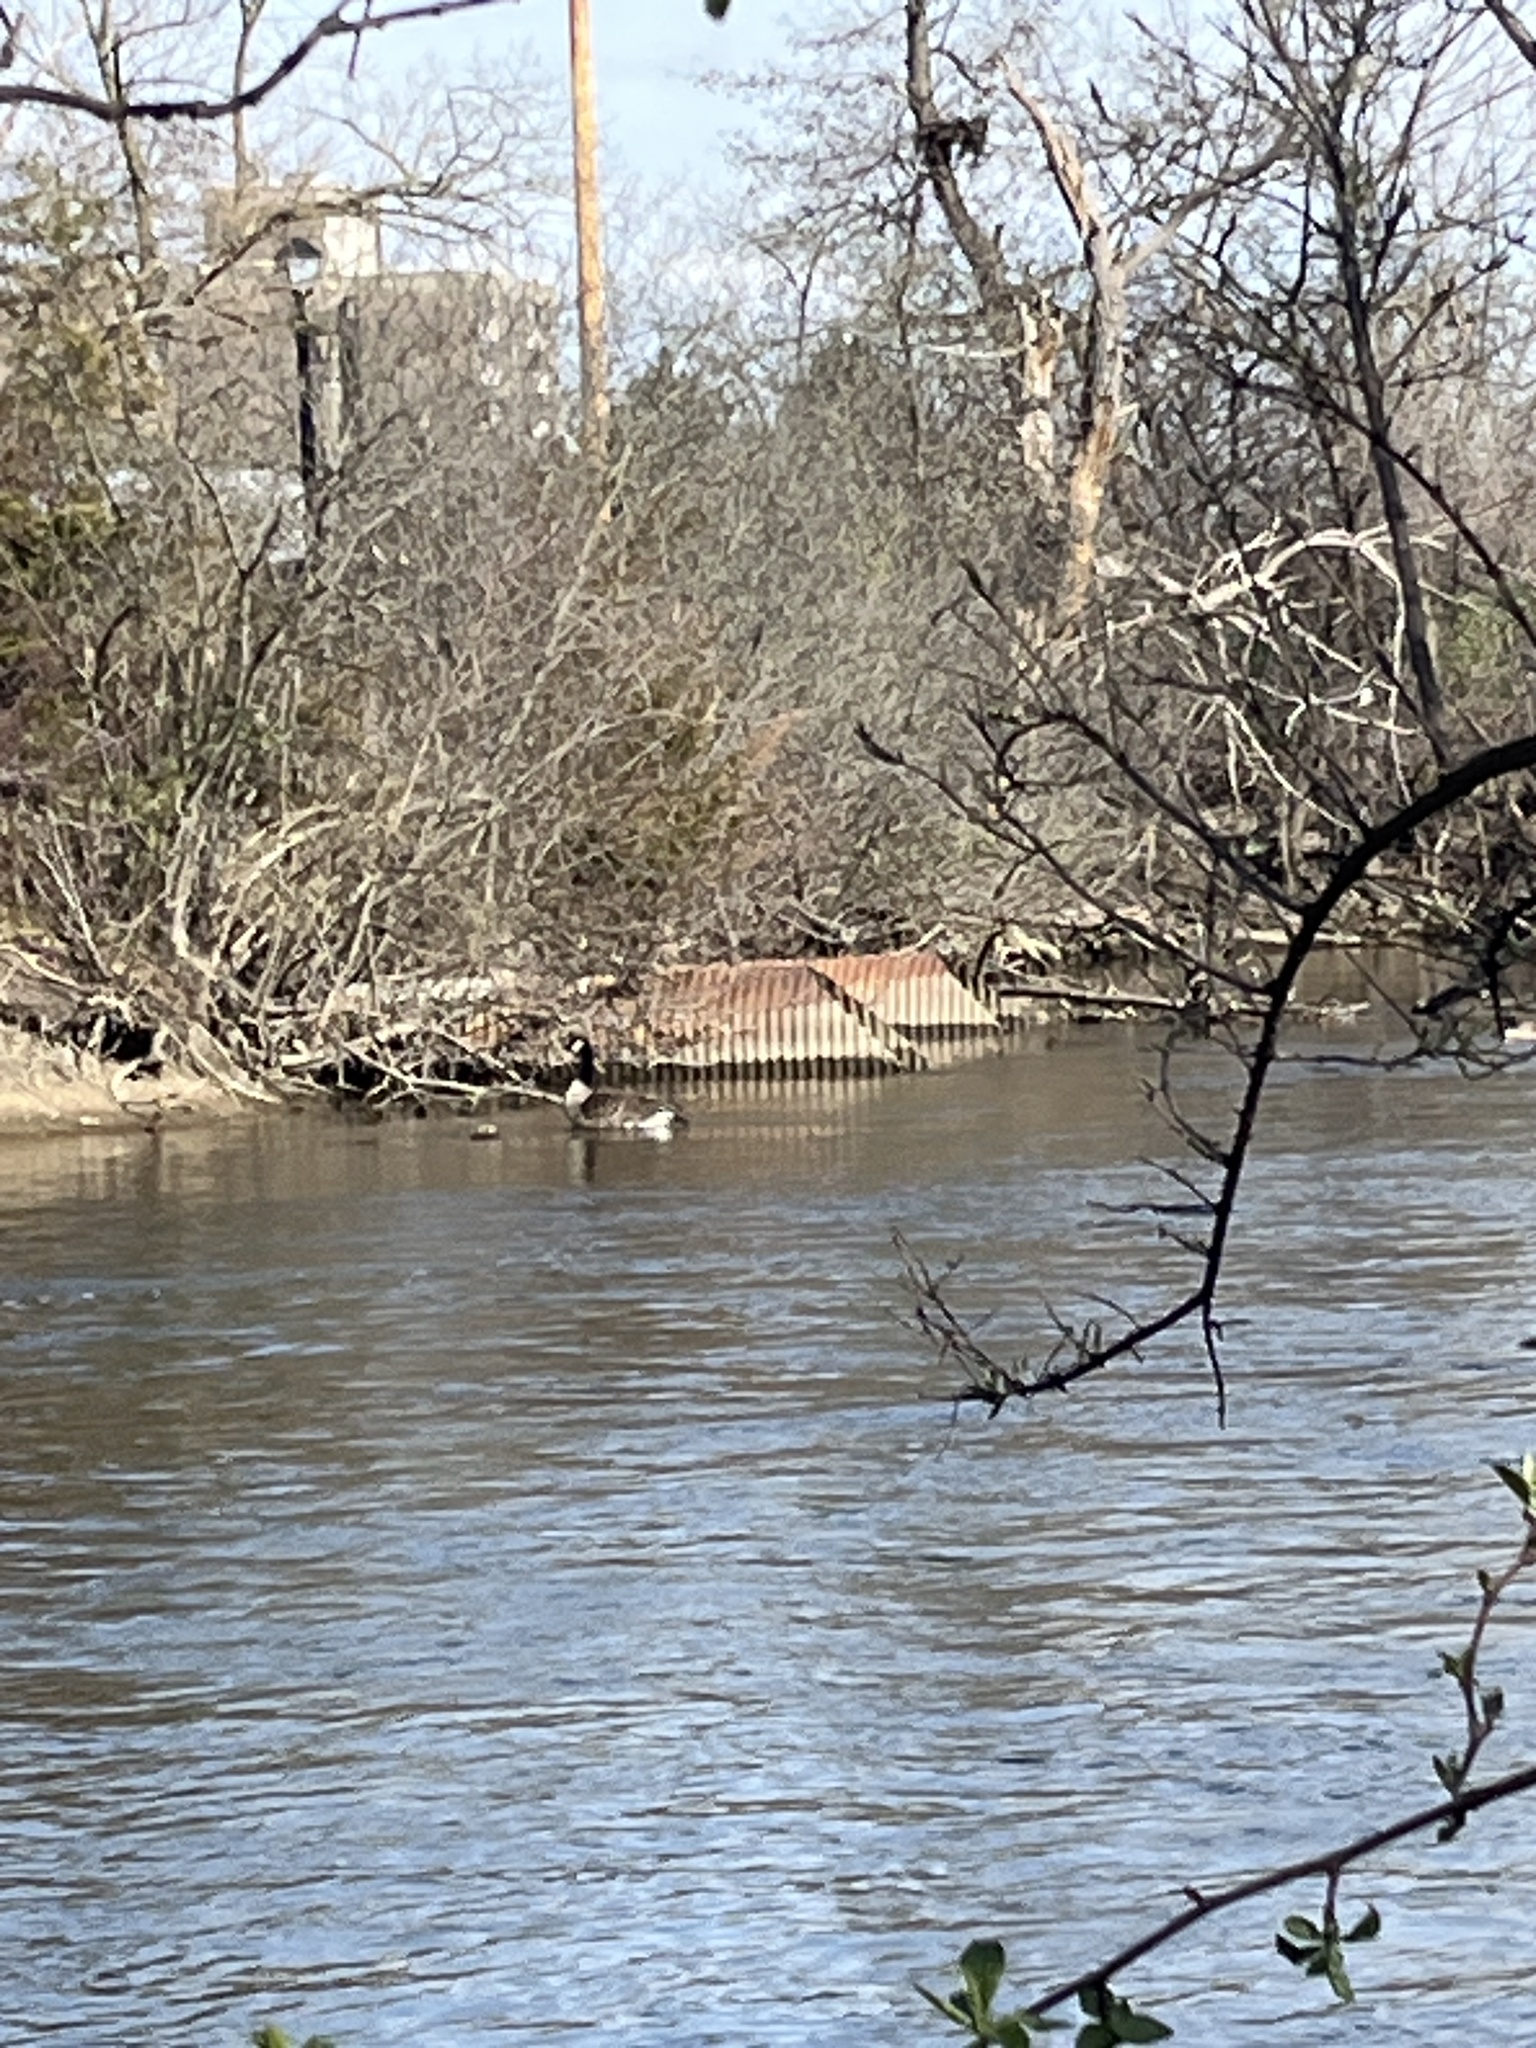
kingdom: Animalia
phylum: Chordata
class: Aves
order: Anseriformes
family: Anatidae
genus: Branta
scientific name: Branta canadensis
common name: Canada goose
